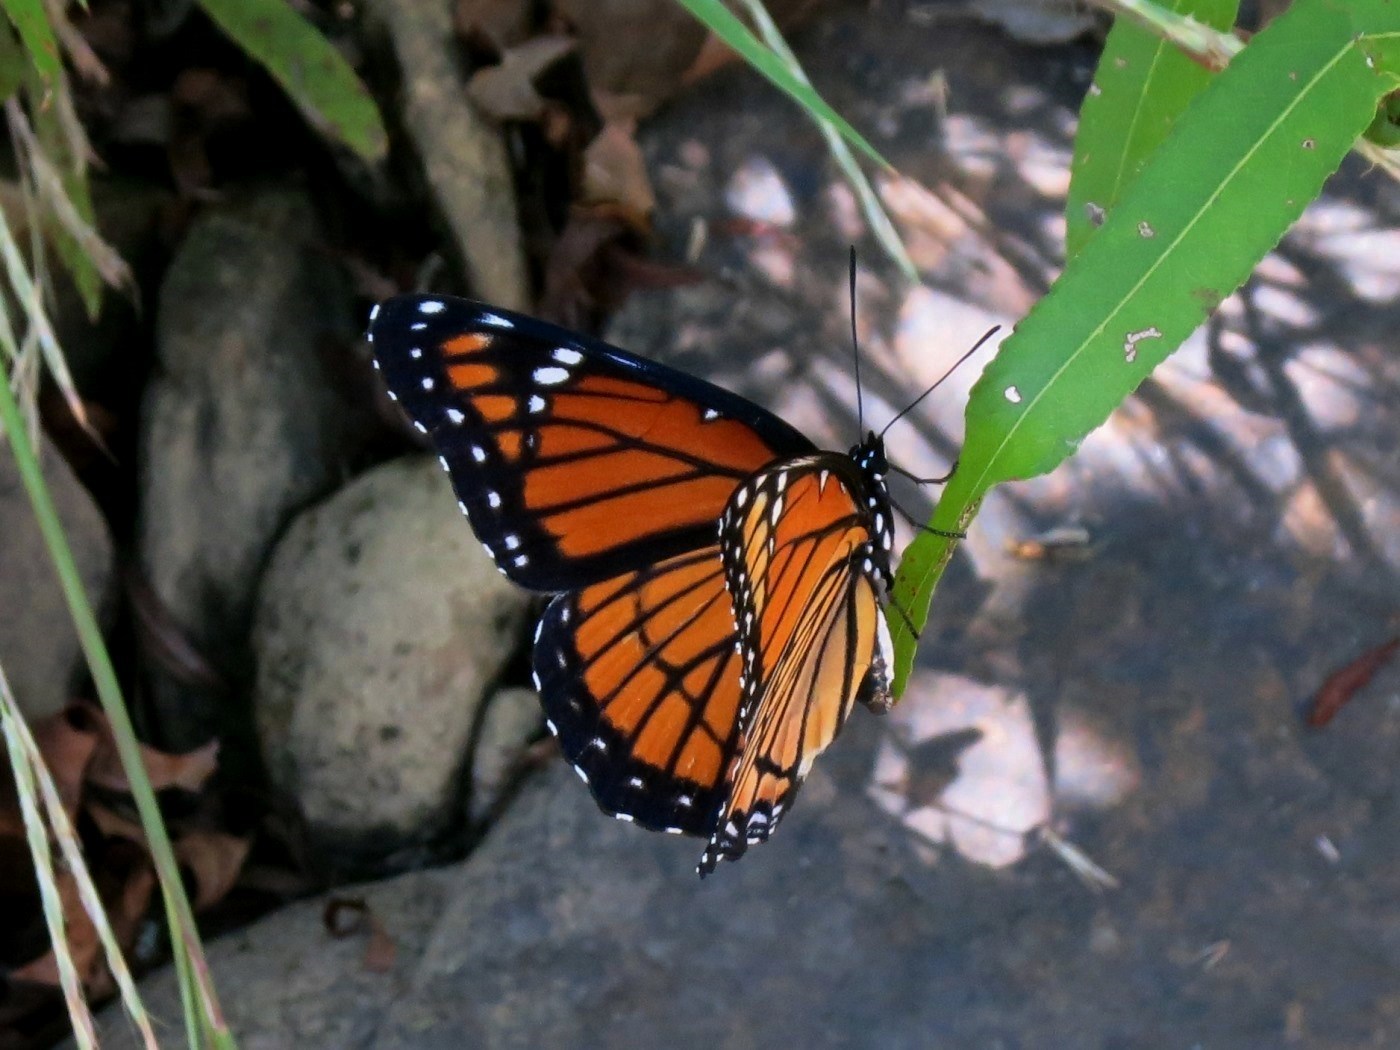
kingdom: Animalia
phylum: Arthropoda
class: Insecta
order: Lepidoptera
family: Nymphalidae
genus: Limenitis
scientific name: Limenitis archippus
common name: Viceroy
